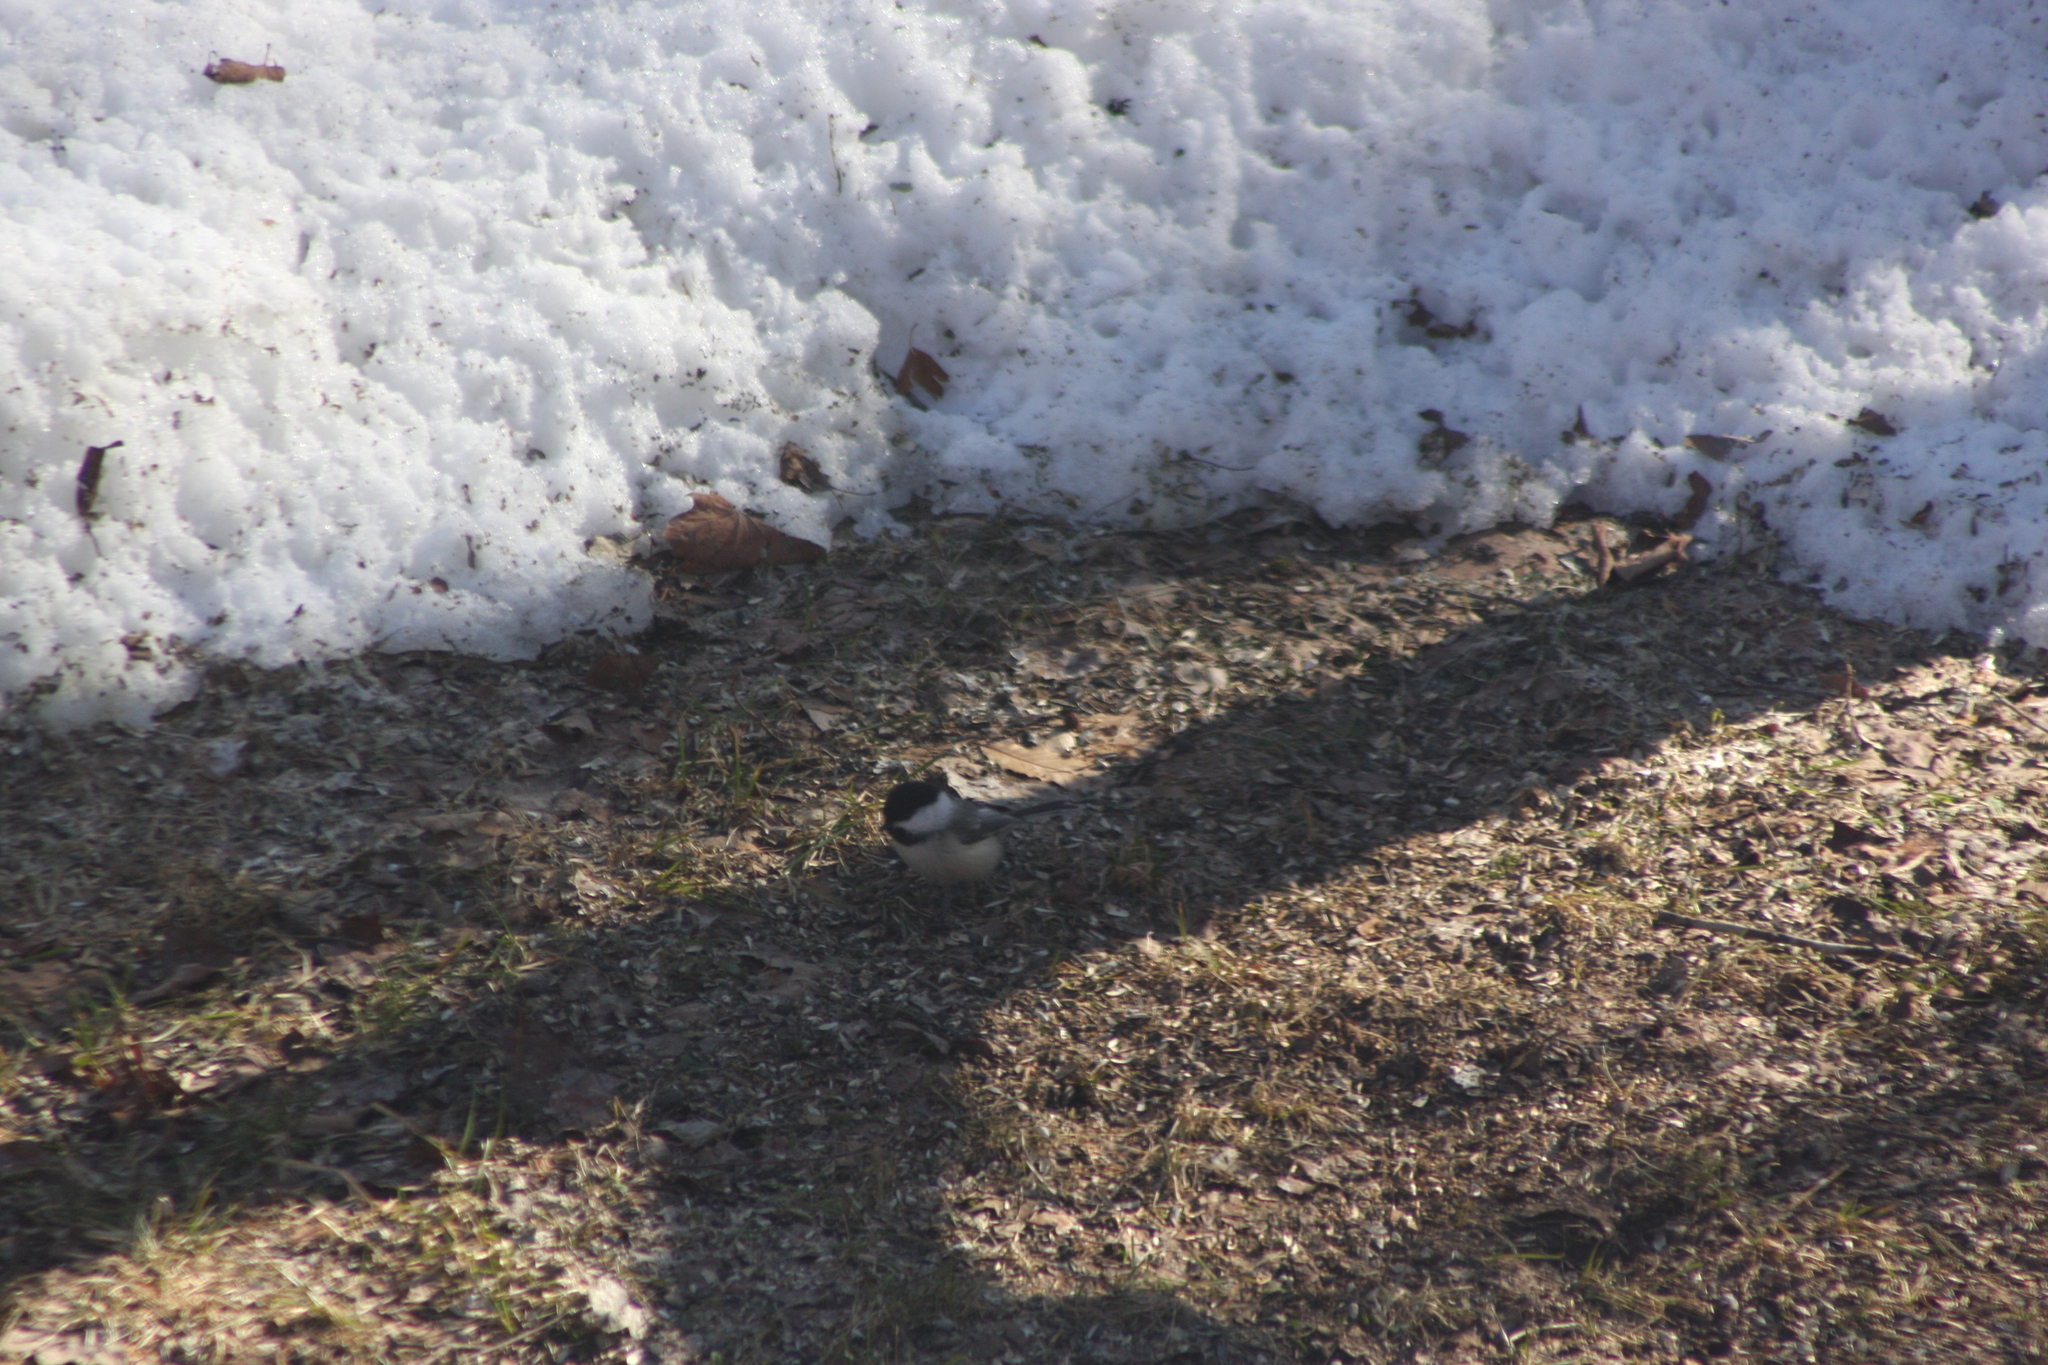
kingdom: Animalia
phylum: Chordata
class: Aves
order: Passeriformes
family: Paridae
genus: Poecile
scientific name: Poecile atricapillus
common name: Black-capped chickadee
